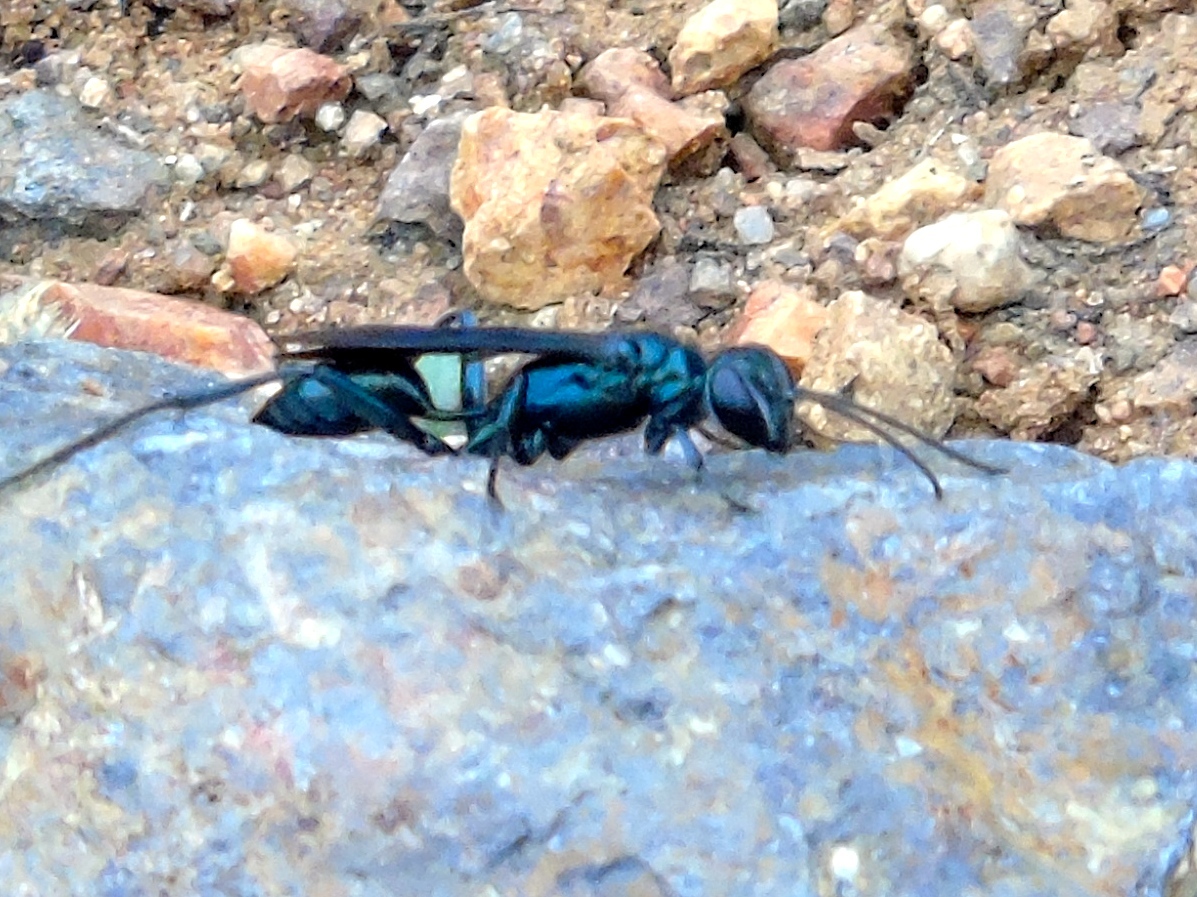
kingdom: Animalia
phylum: Arthropoda
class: Insecta
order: Hymenoptera
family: Sphecidae
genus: Chalybion
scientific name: Chalybion
